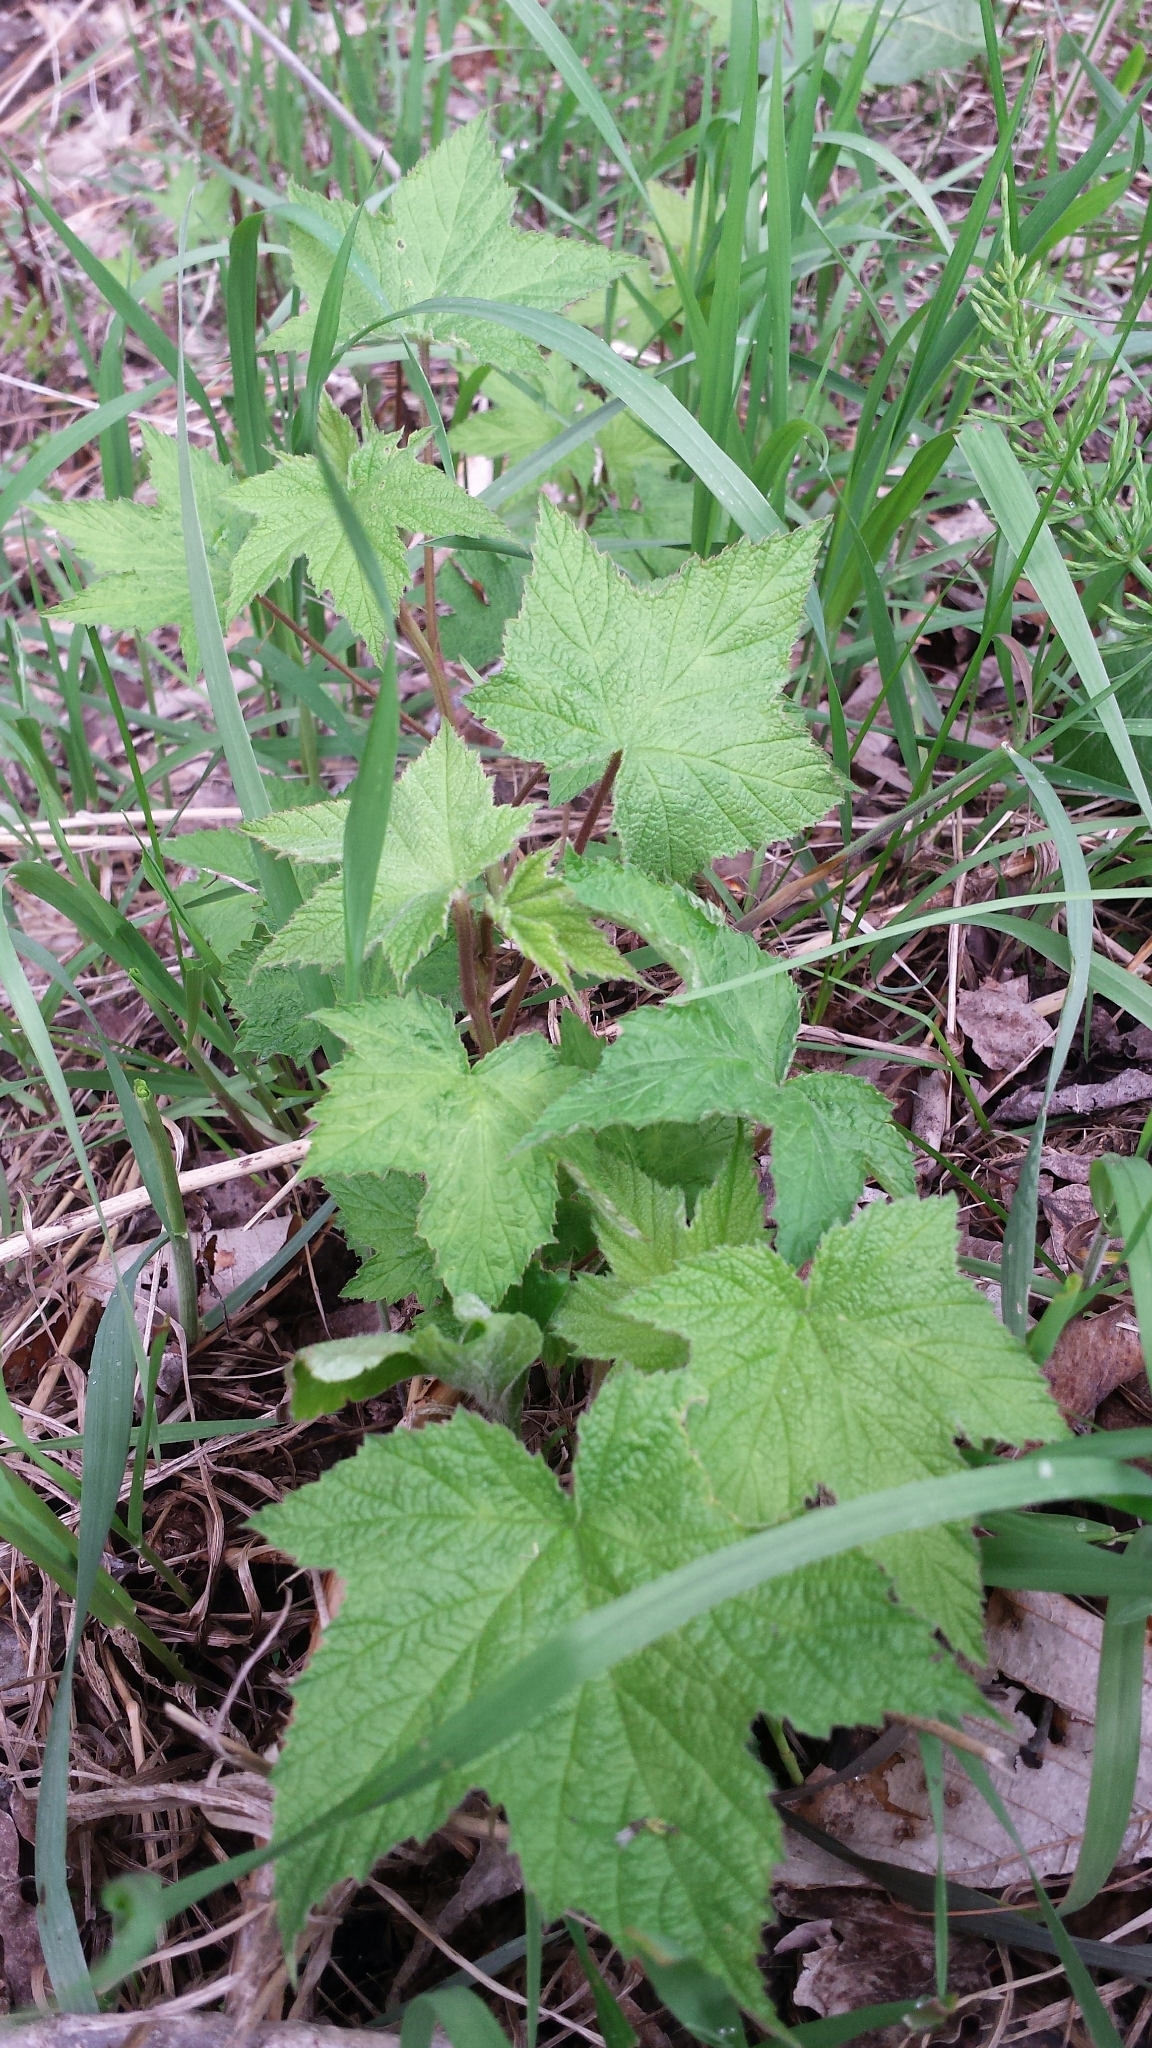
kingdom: Plantae
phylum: Tracheophyta
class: Magnoliopsida
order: Rosales
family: Rosaceae
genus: Rubus
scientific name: Rubus odoratus
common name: Purple-flowered raspberry
